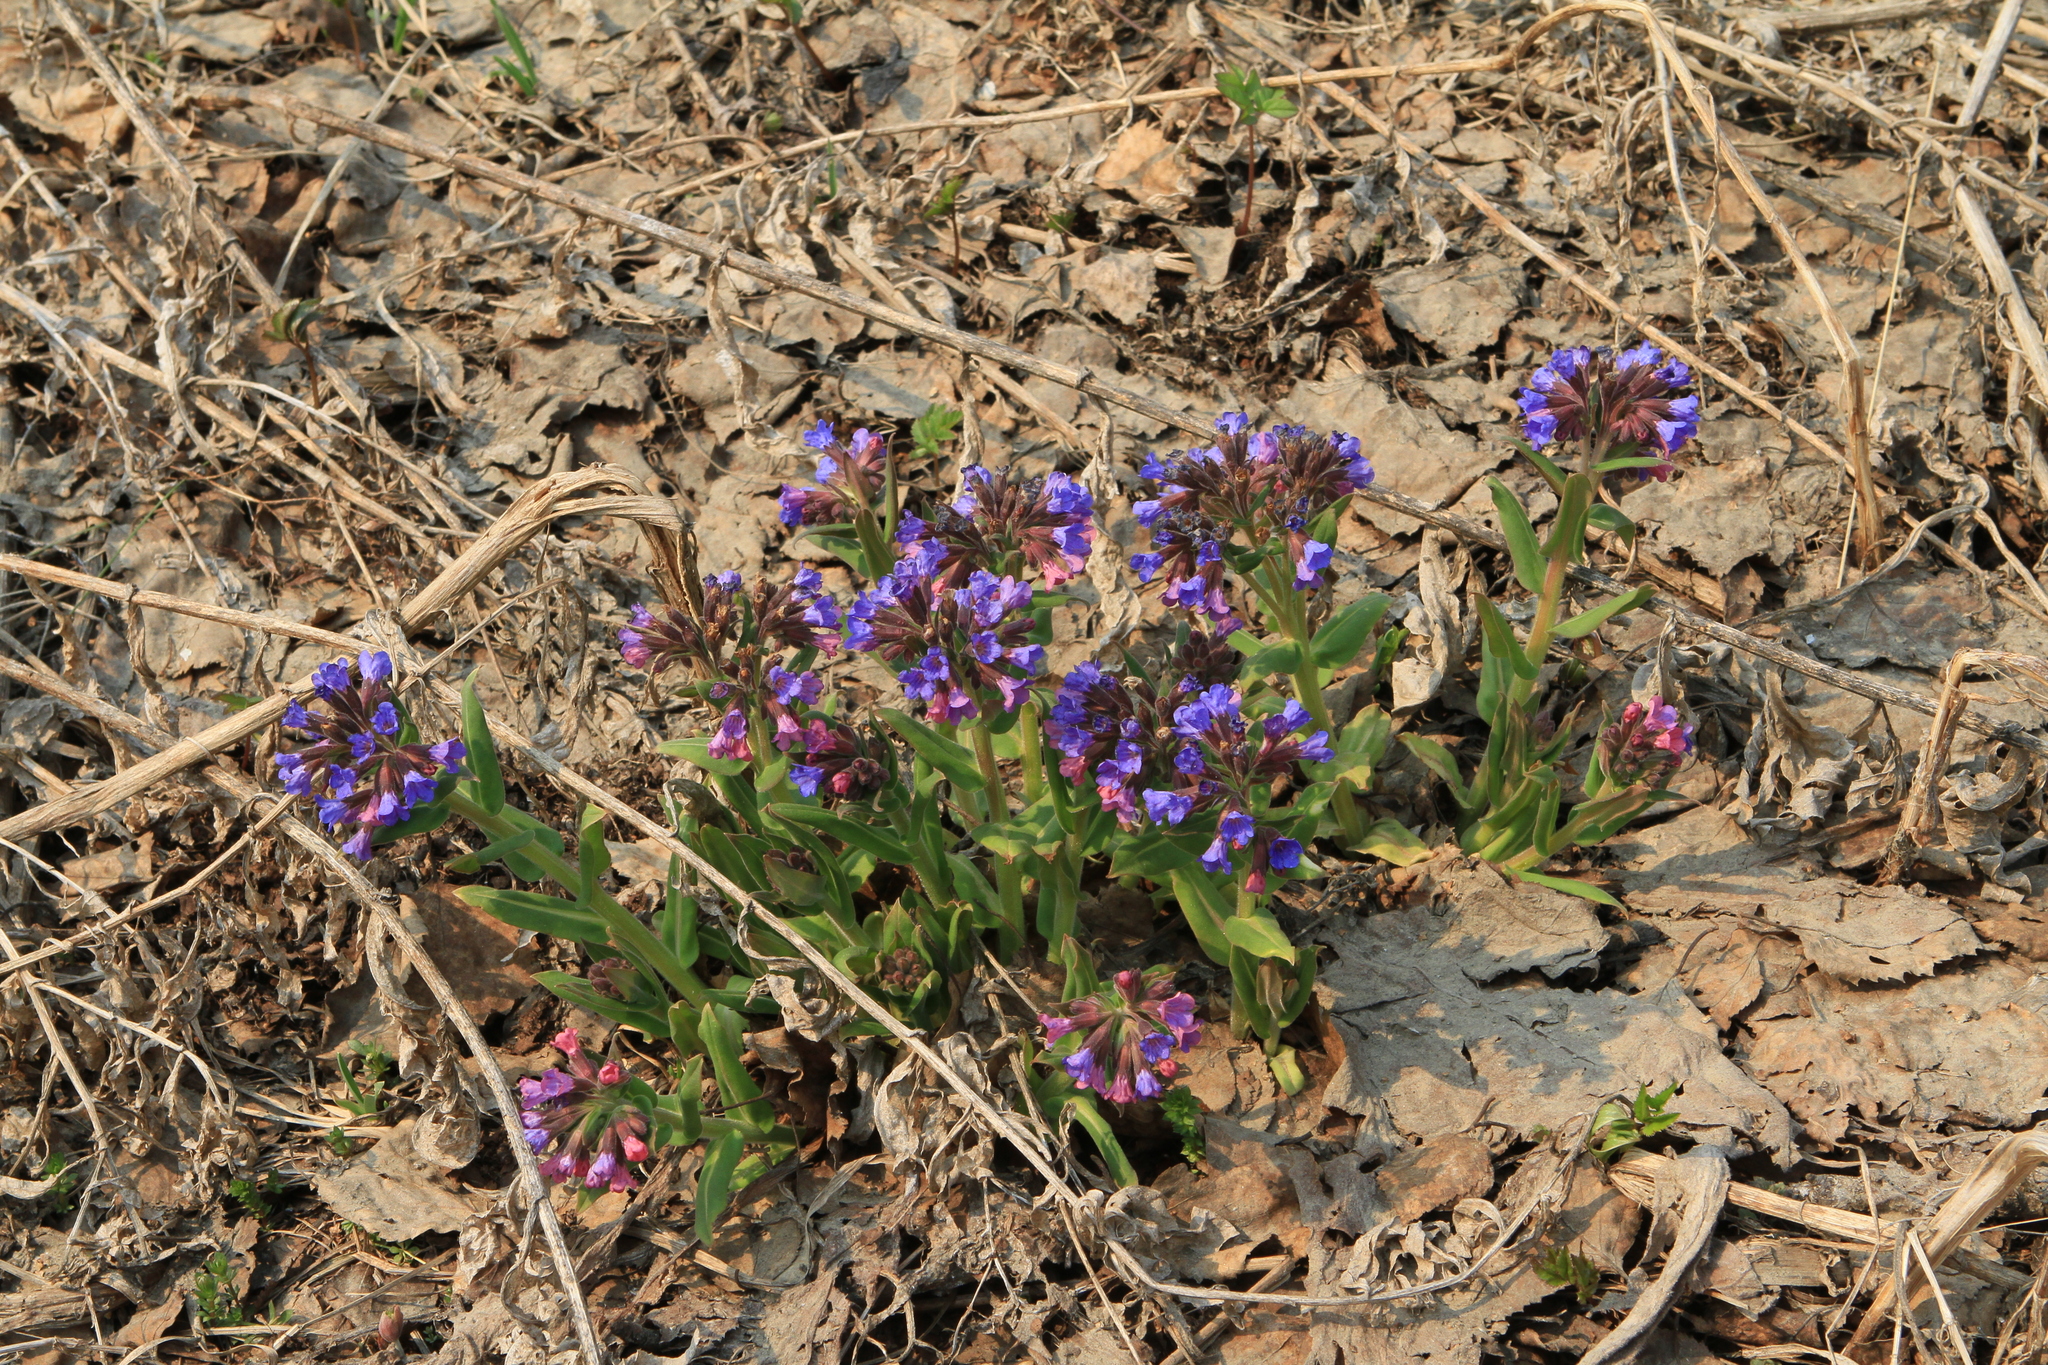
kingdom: Plantae
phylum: Tracheophyta
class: Magnoliopsida
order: Boraginales
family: Boraginaceae
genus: Pulmonaria
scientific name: Pulmonaria mollis
